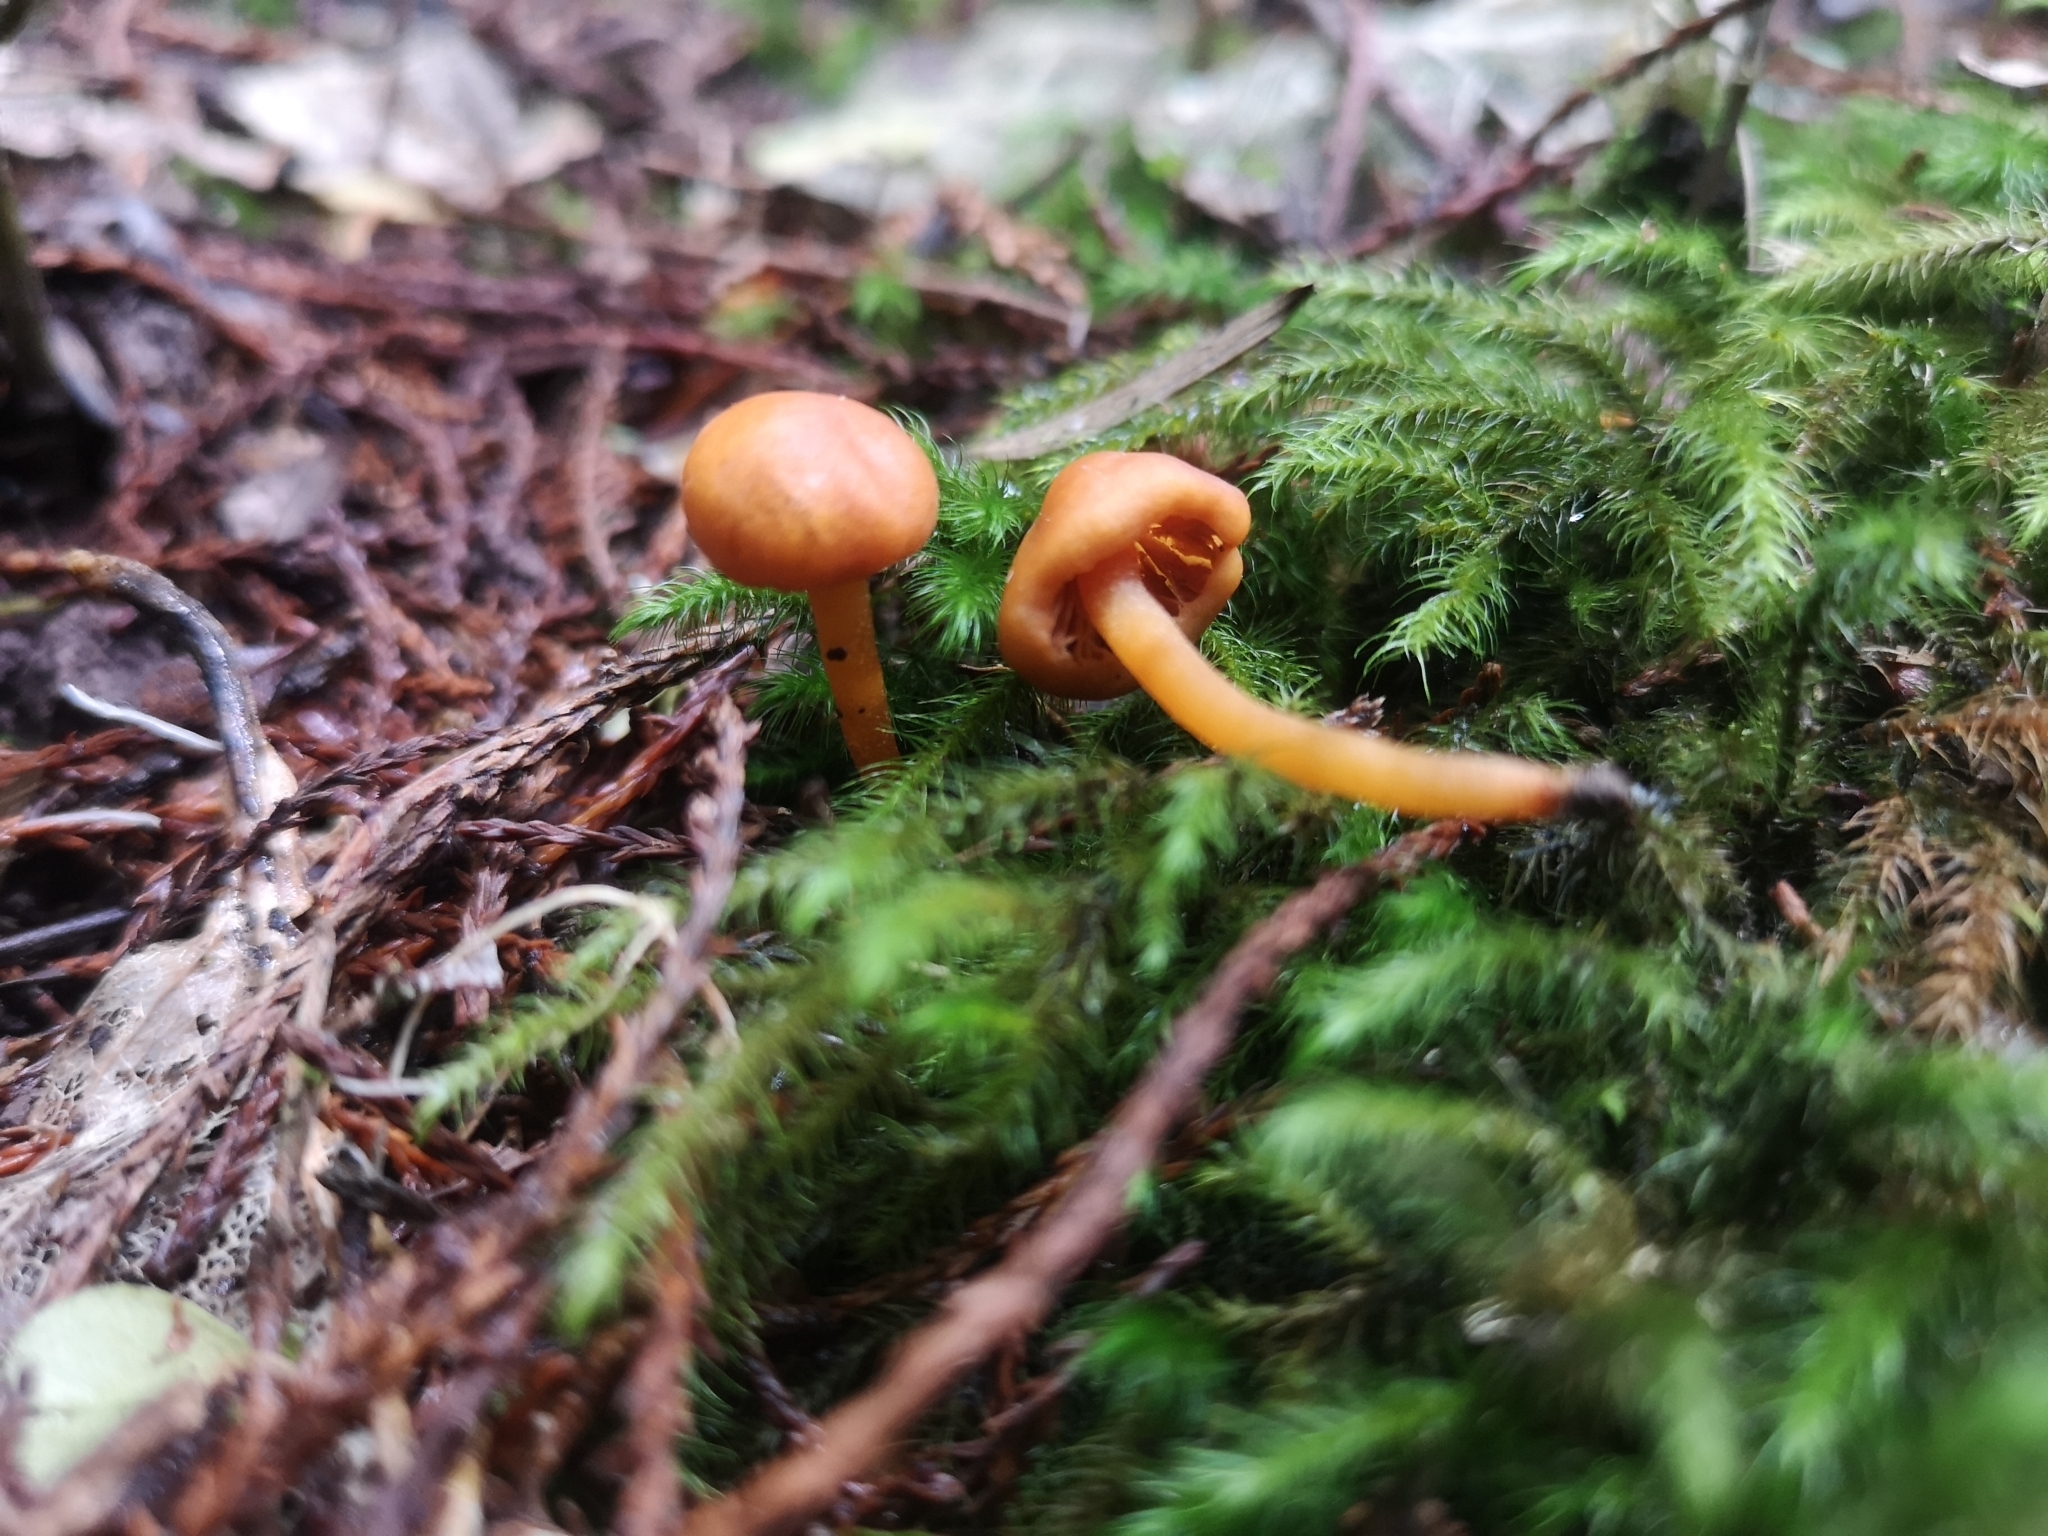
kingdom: Fungi
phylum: Basidiomycota
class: Agaricomycetes
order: Agaricales
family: Macrocystidiaceae
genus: Macrocystidia
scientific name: Macrocystidia reducta
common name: The fishy pouch
